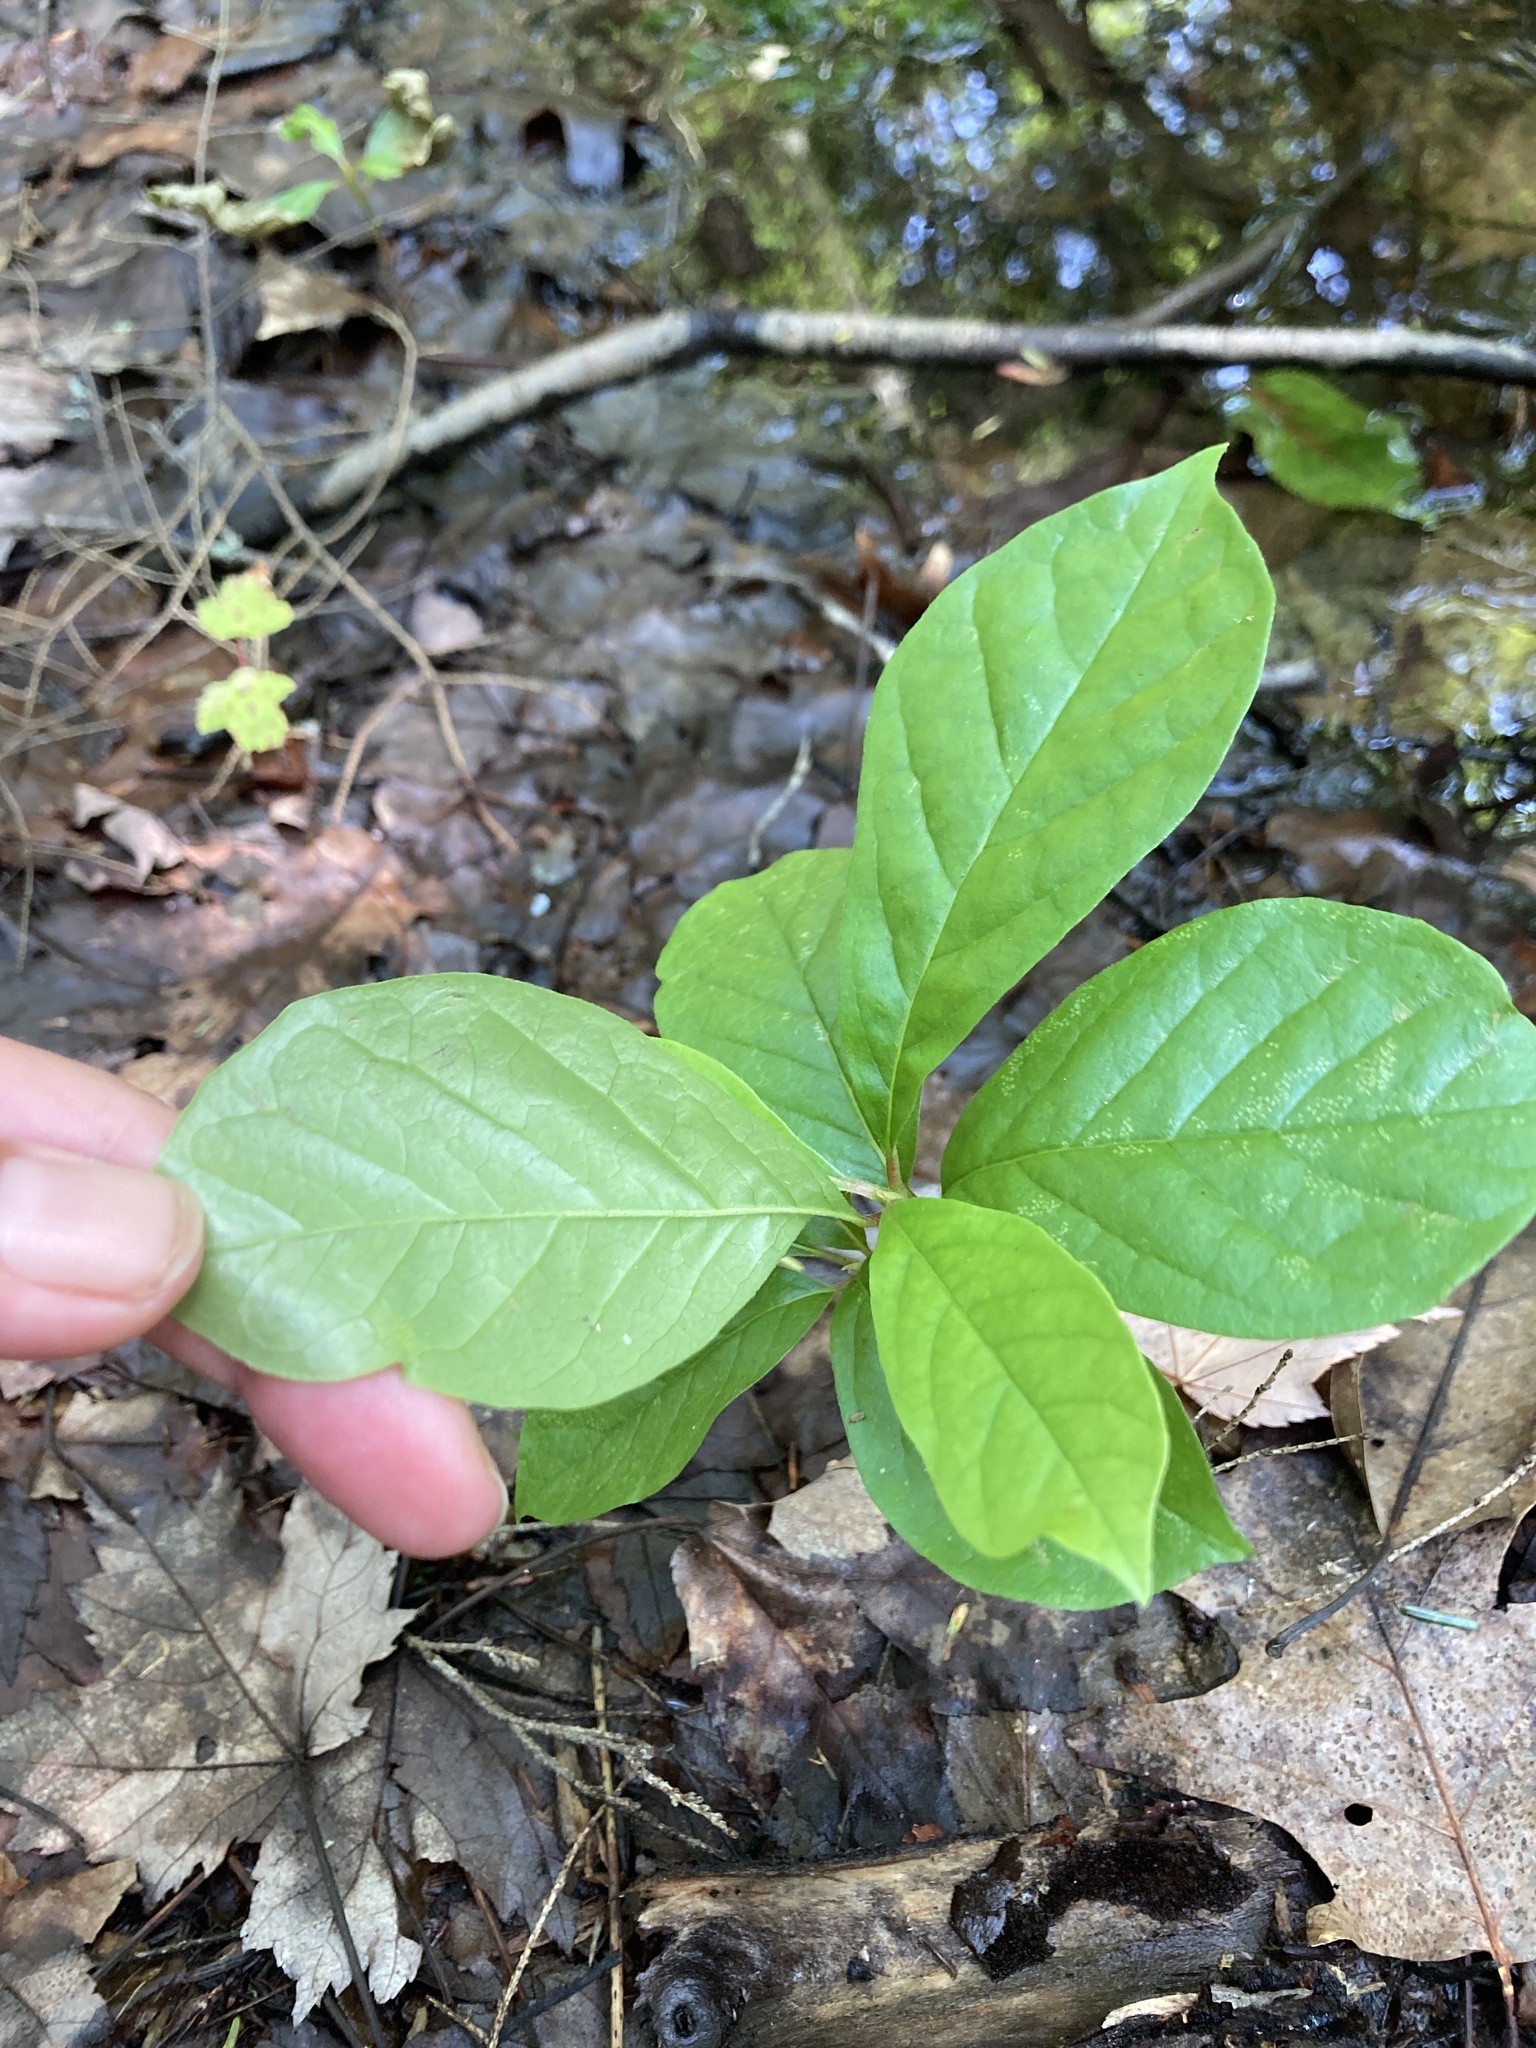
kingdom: Plantae
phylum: Tracheophyta
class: Magnoliopsida
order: Cornales
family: Nyssaceae
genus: Nyssa
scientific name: Nyssa sylvatica
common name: Black tupelo
